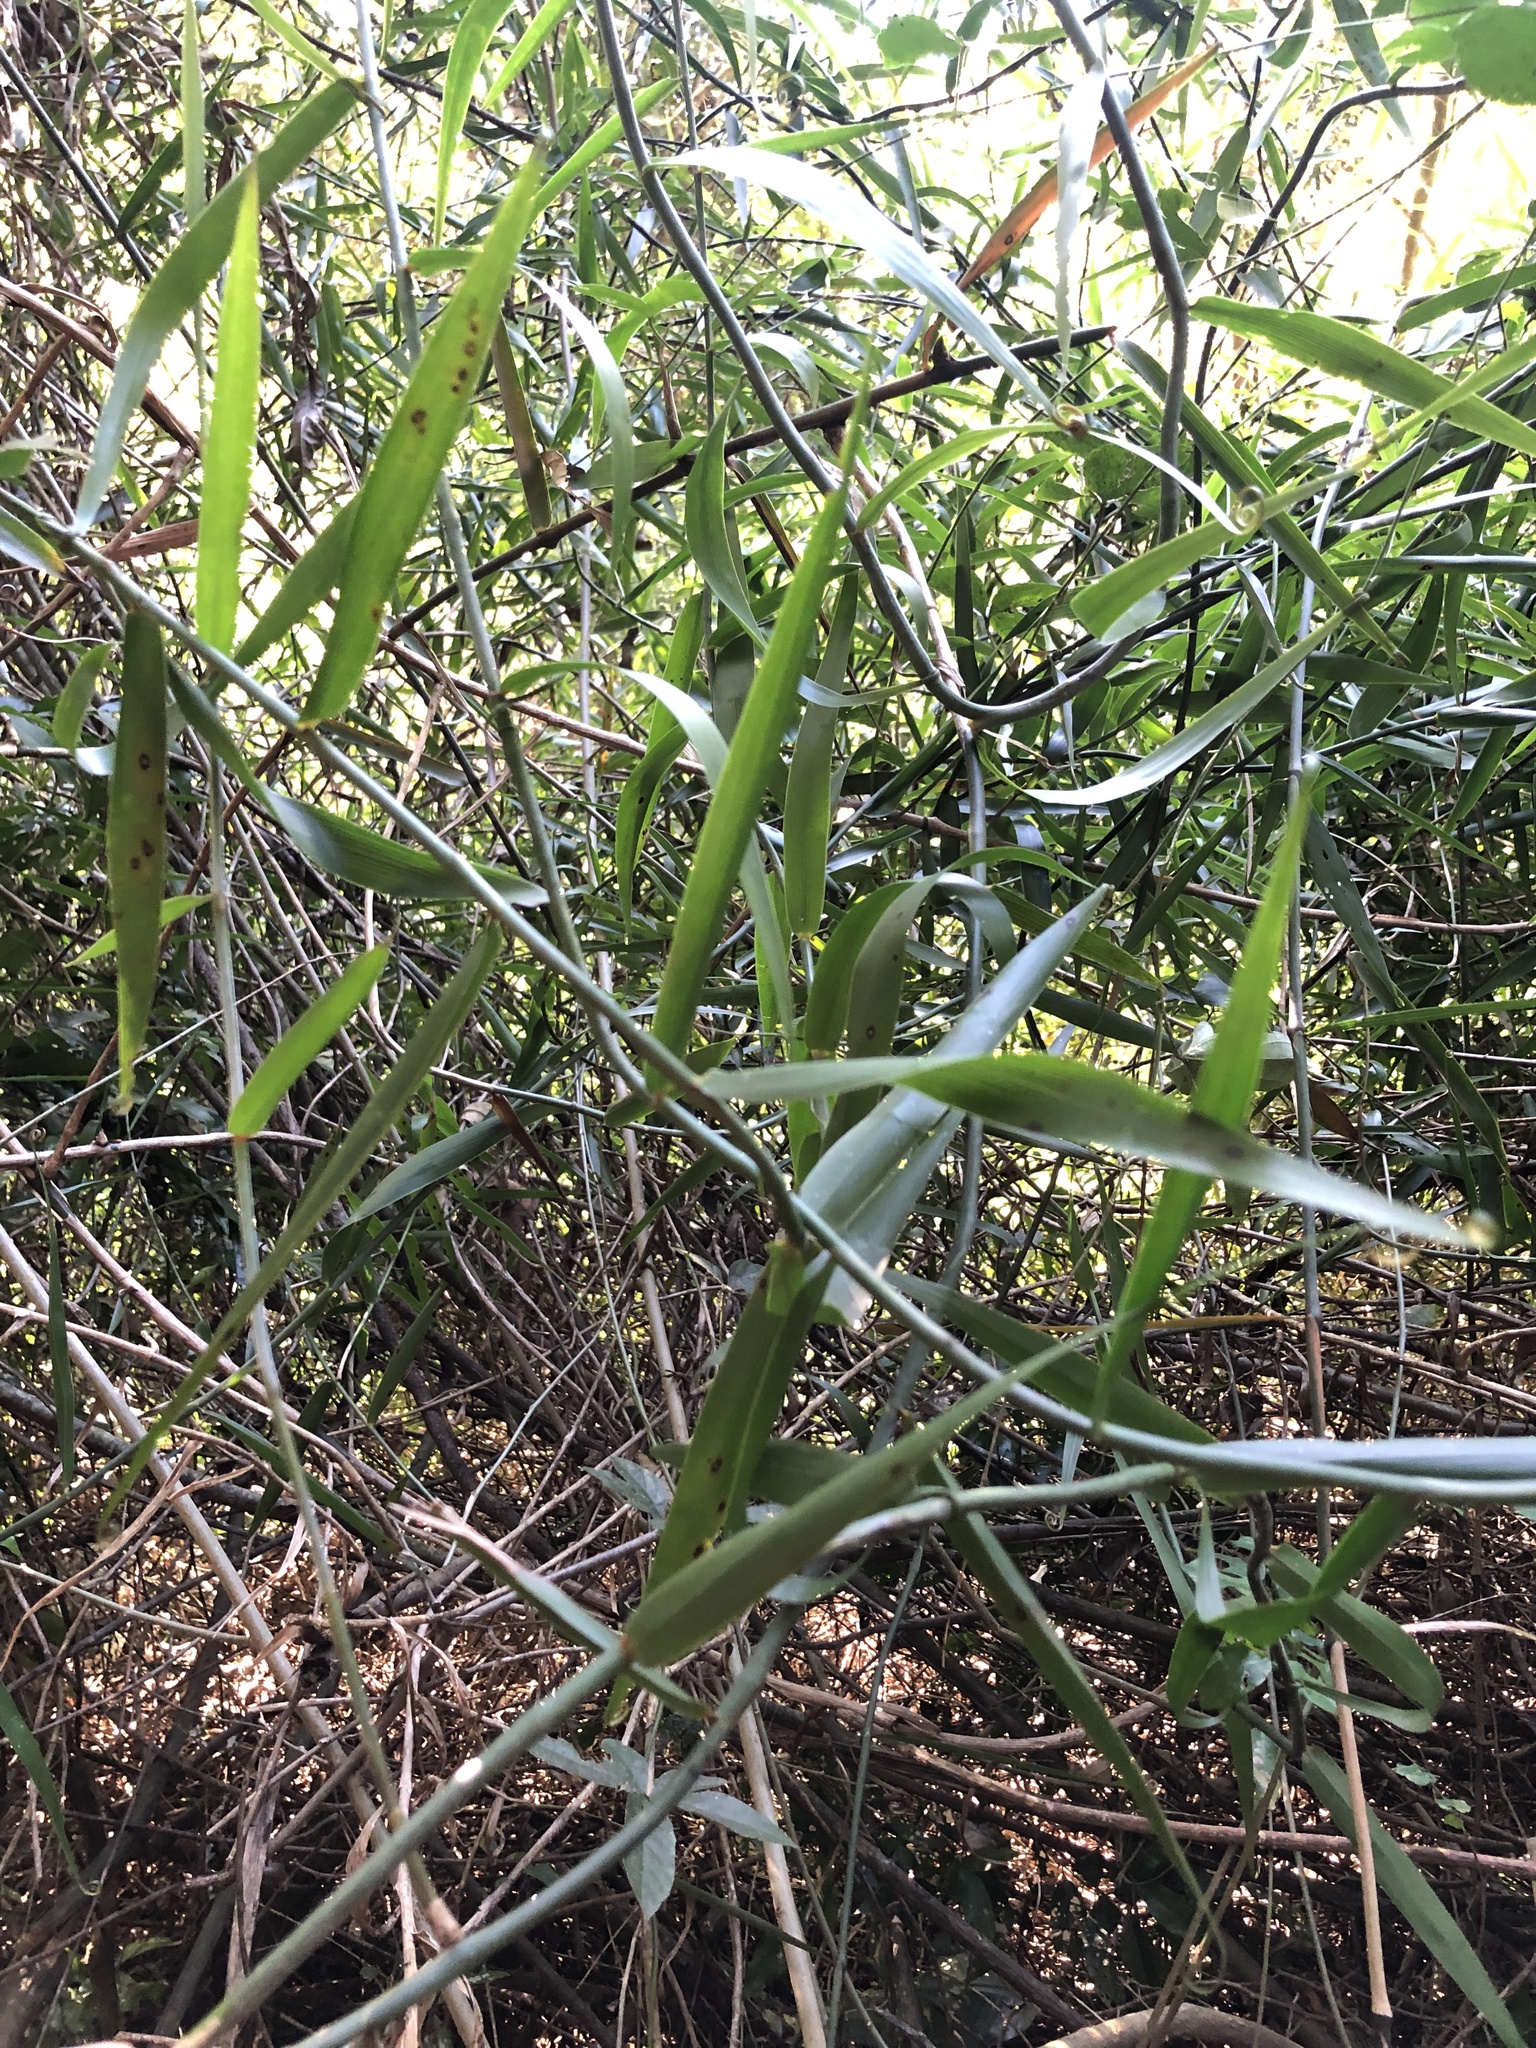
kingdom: Plantae
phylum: Tracheophyta
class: Liliopsida
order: Poales
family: Flagellariaceae
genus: Flagellaria
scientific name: Flagellaria guineensis
